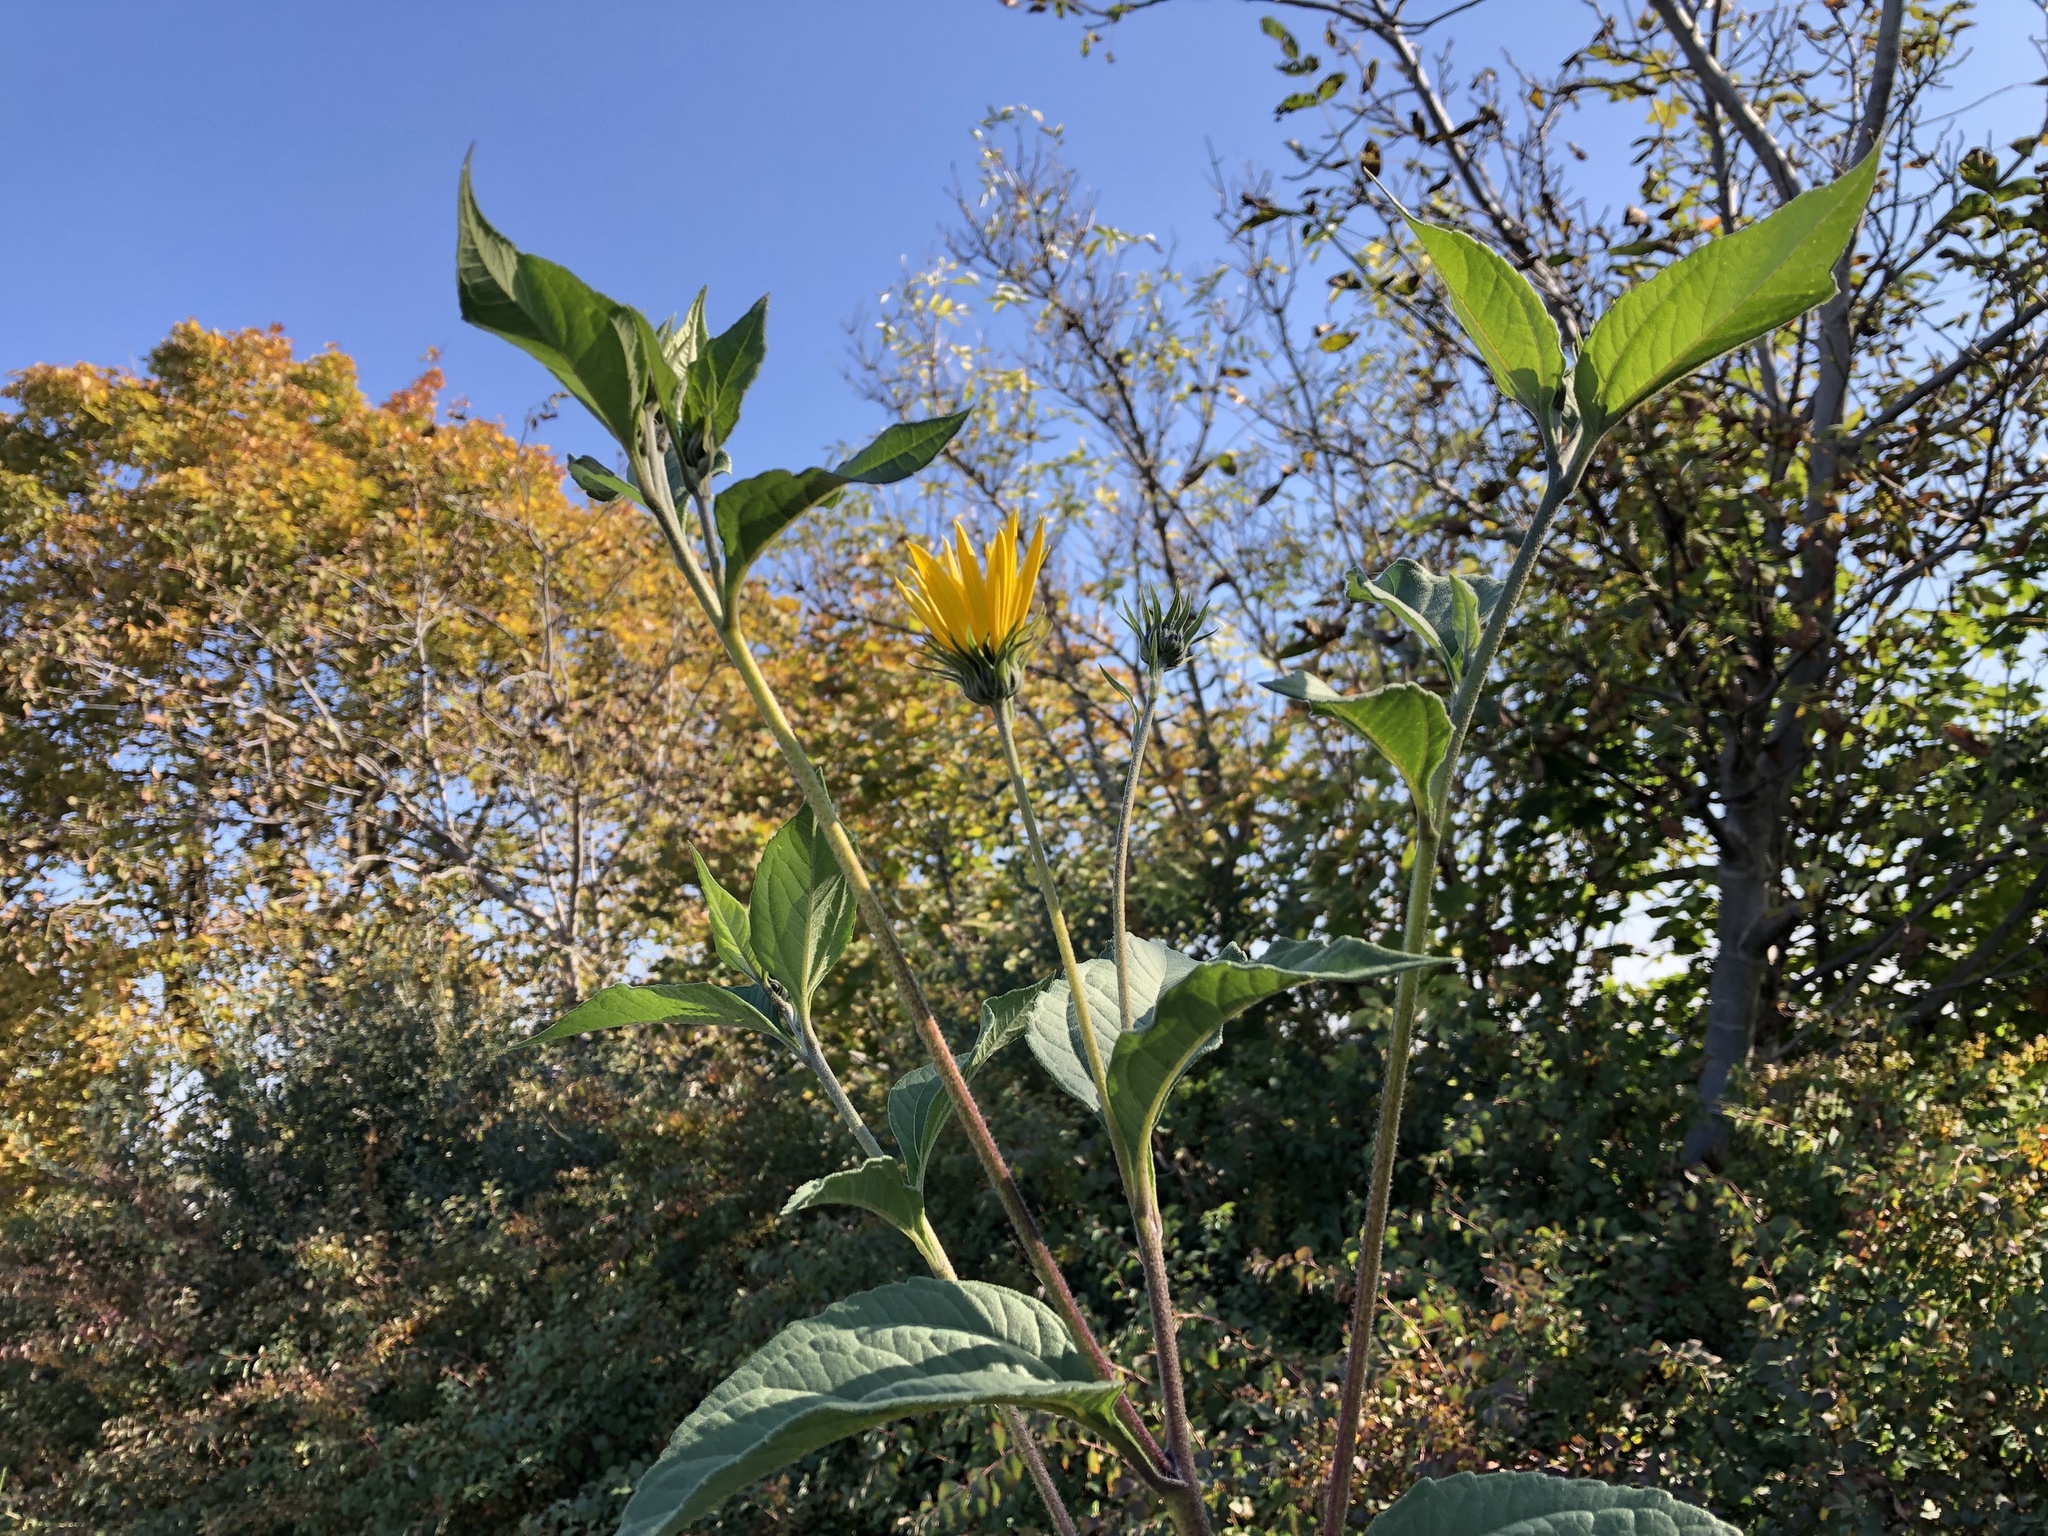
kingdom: Plantae
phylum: Tracheophyta
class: Magnoliopsida
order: Asterales
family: Asteraceae
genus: Helianthus
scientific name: Helianthus tuberosus
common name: Jerusalem artichoke
